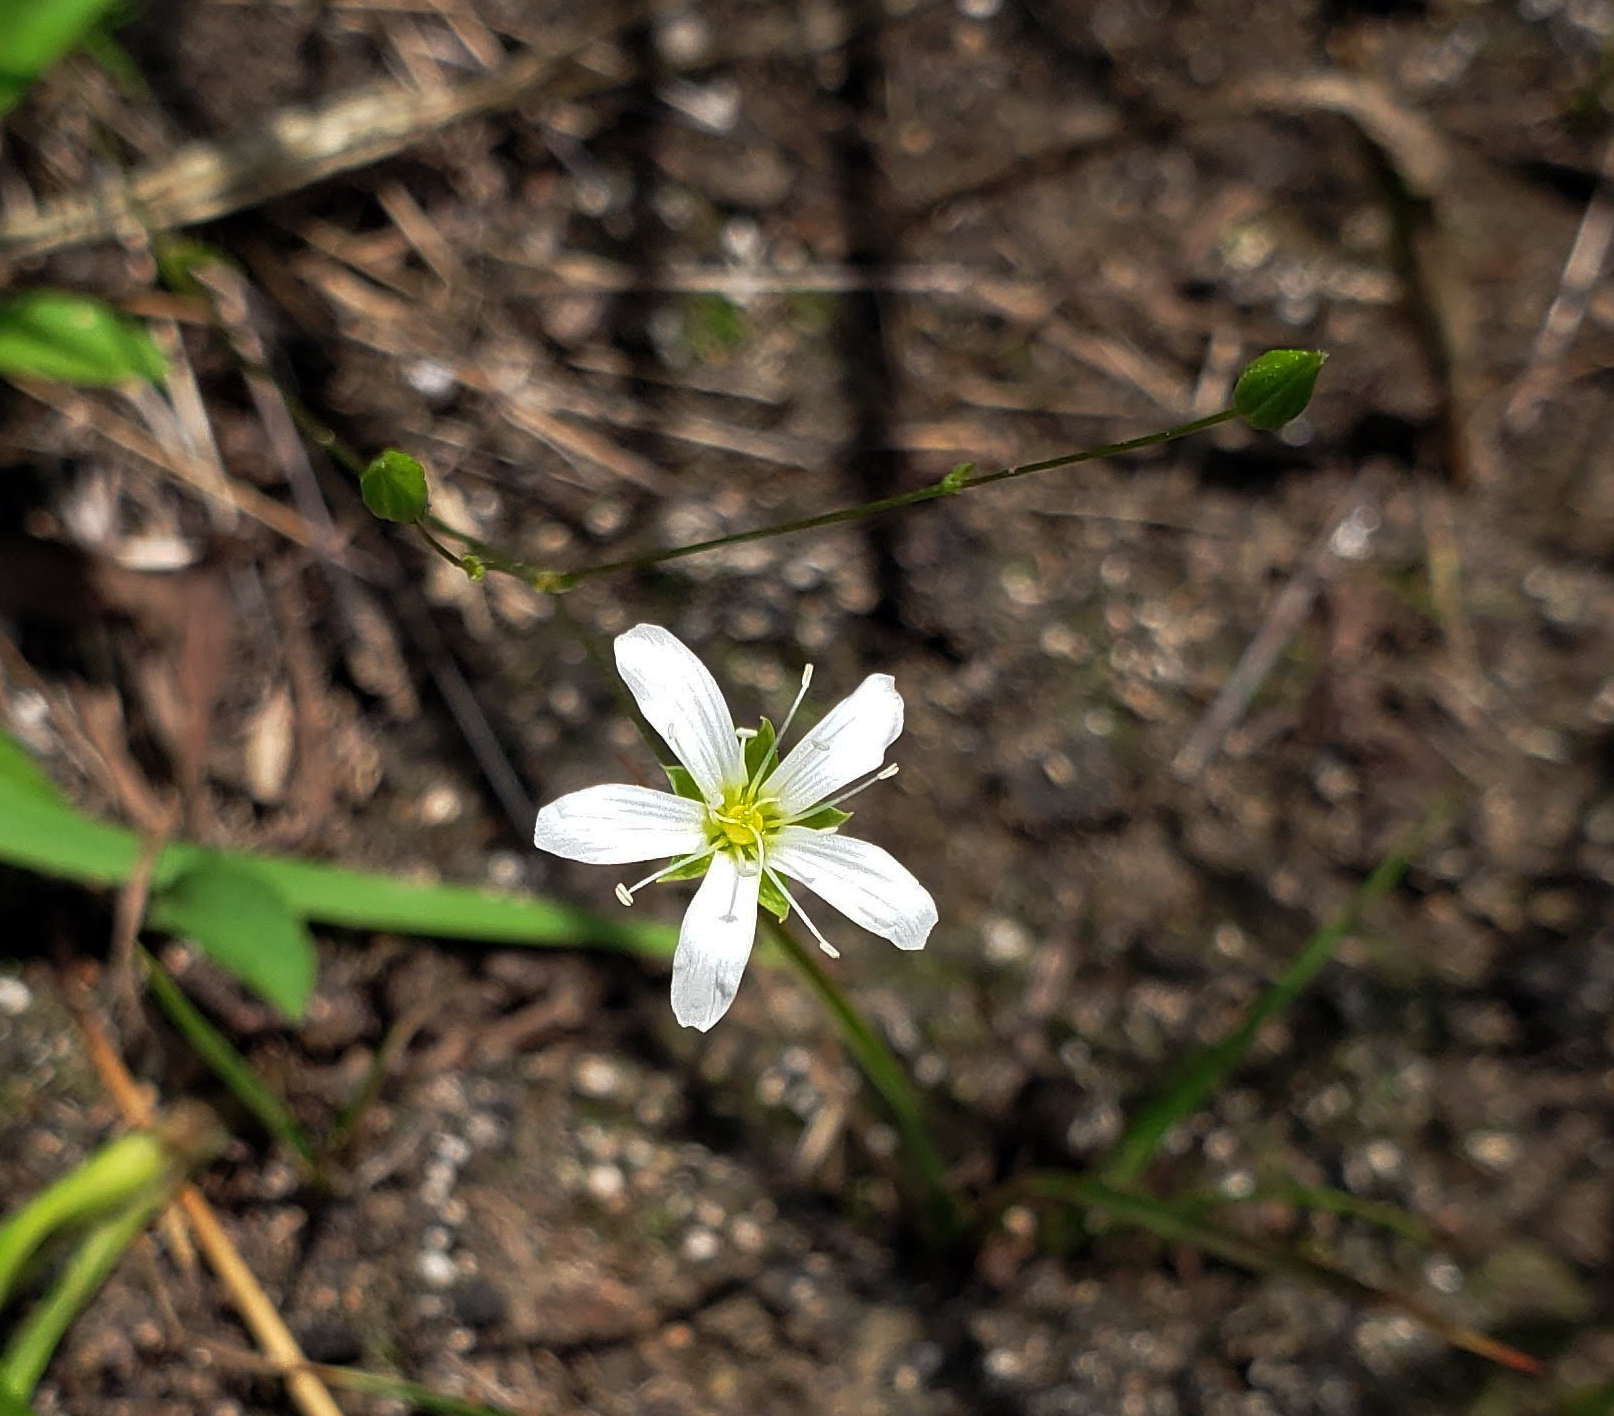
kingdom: Plantae
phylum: Tracheophyta
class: Magnoliopsida
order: Caryophyllales
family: Caryophyllaceae
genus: Sabulina
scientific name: Sabulina michauxii
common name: Michaux's stitchwort
